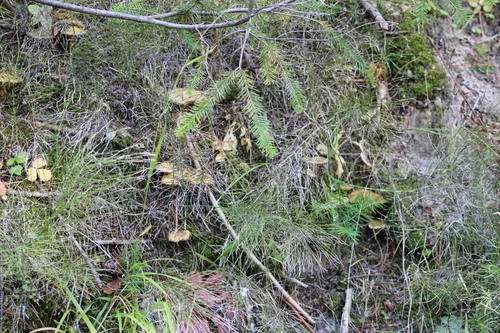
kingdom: Fungi
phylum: Basidiomycota
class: Agaricomycetes
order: Boletales
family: Suillaceae
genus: Suillus
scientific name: Suillus americanus
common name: Chicken fat mushroom
